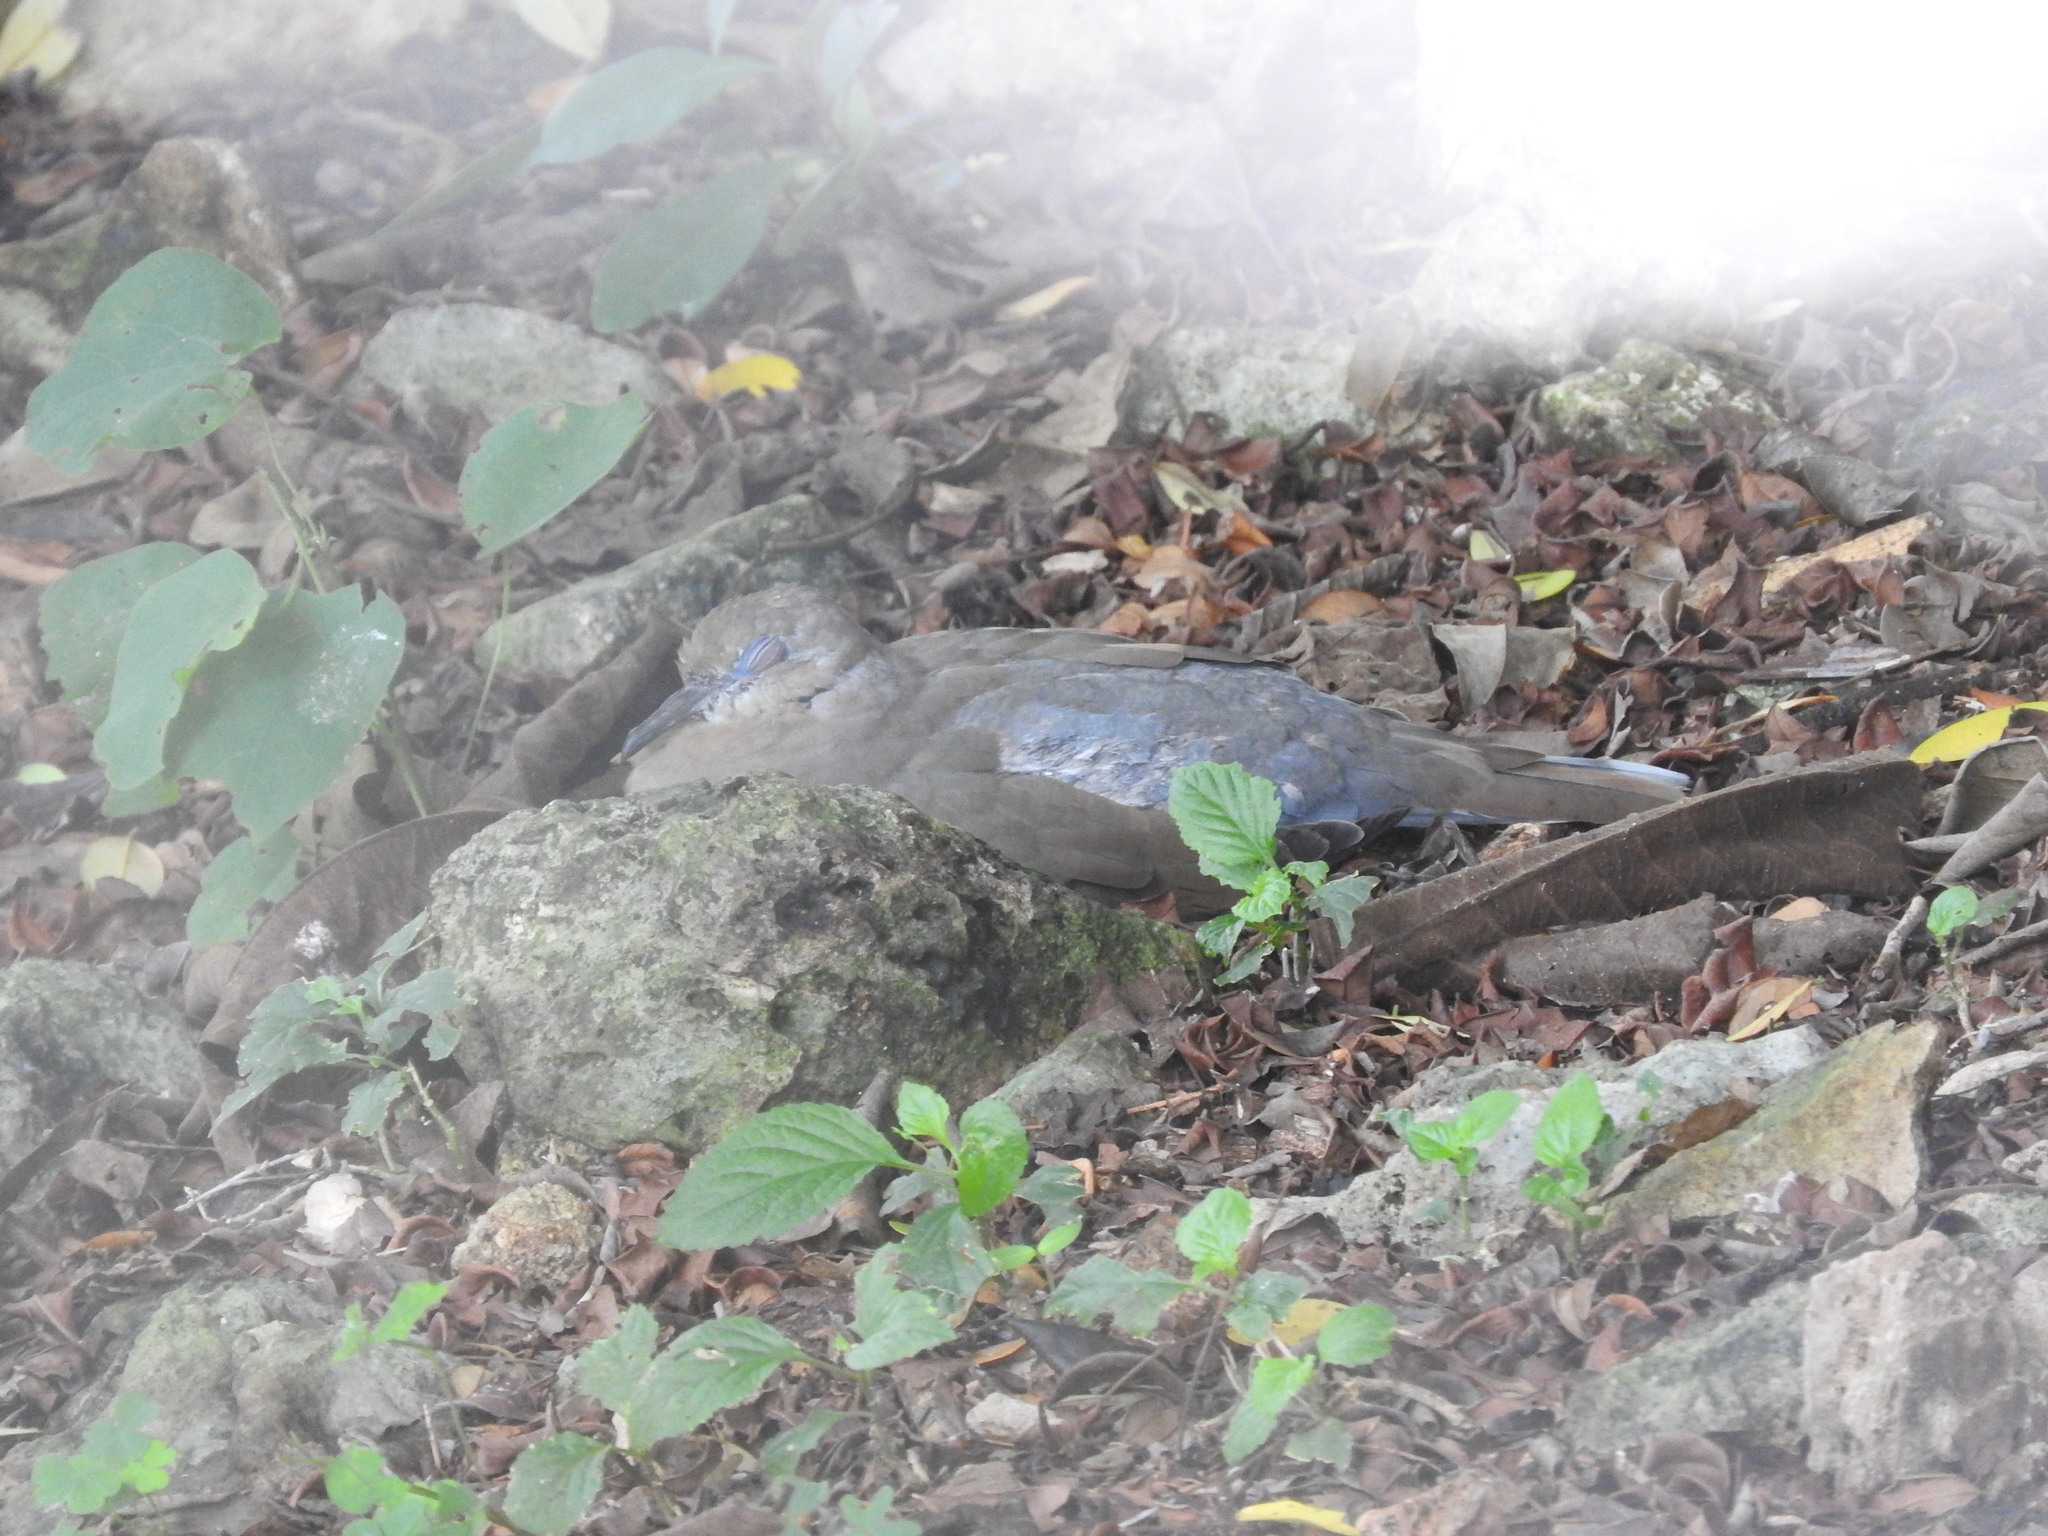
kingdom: Animalia
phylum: Chordata
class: Aves
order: Columbiformes
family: Columbidae
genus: Zenaida
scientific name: Zenaida asiatica
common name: White-winged dove
